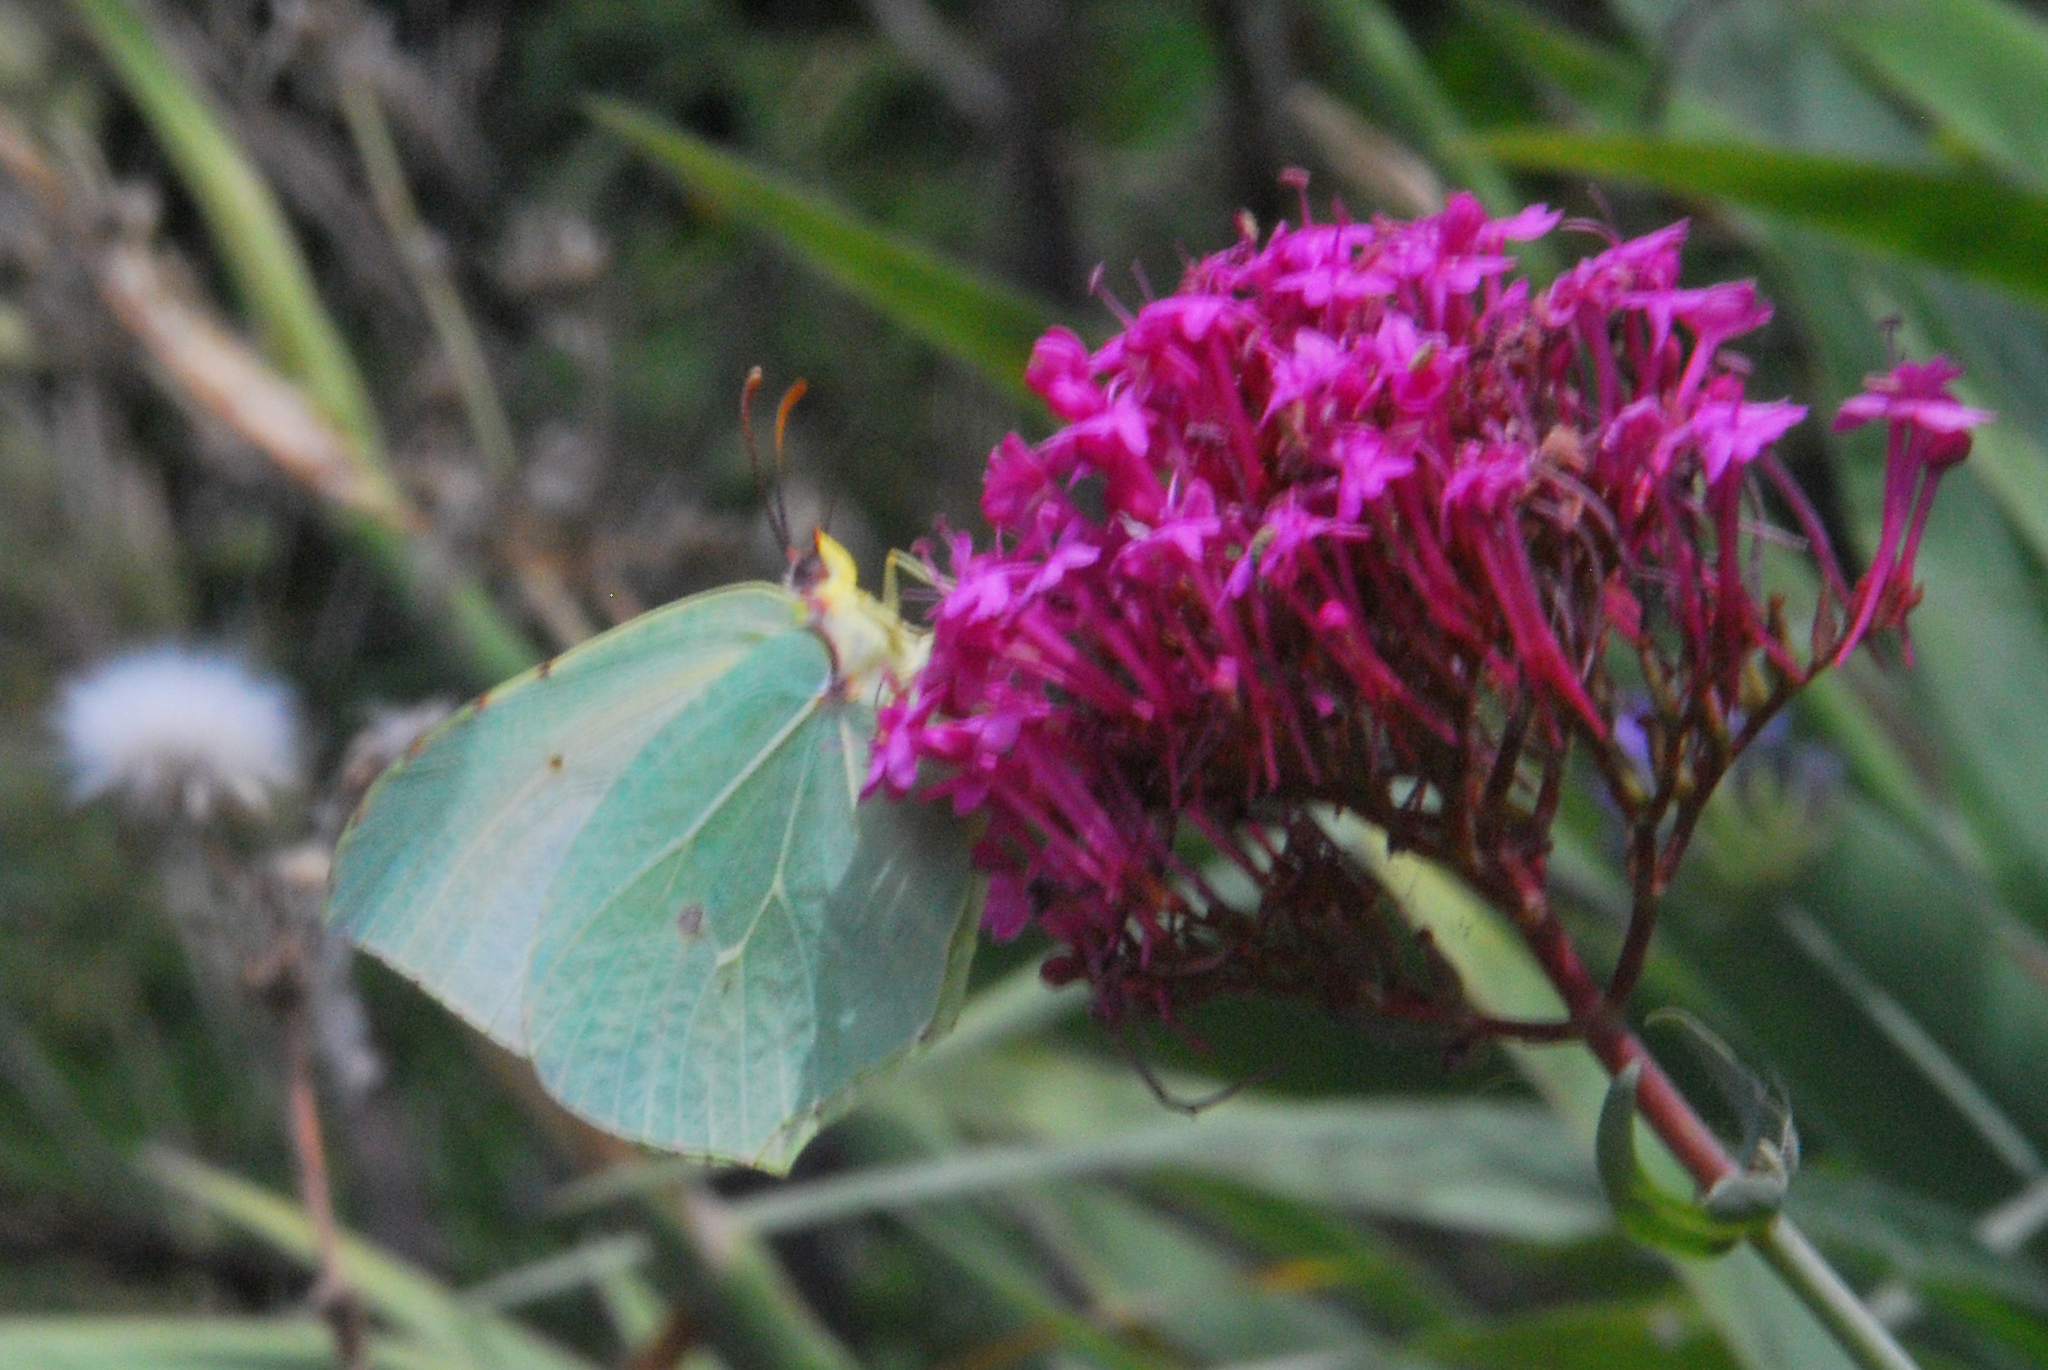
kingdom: Animalia
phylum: Arthropoda
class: Insecta
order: Lepidoptera
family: Pieridae
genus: Gonepteryx
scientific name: Gonepteryx cleopatra
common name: Cleopatra
